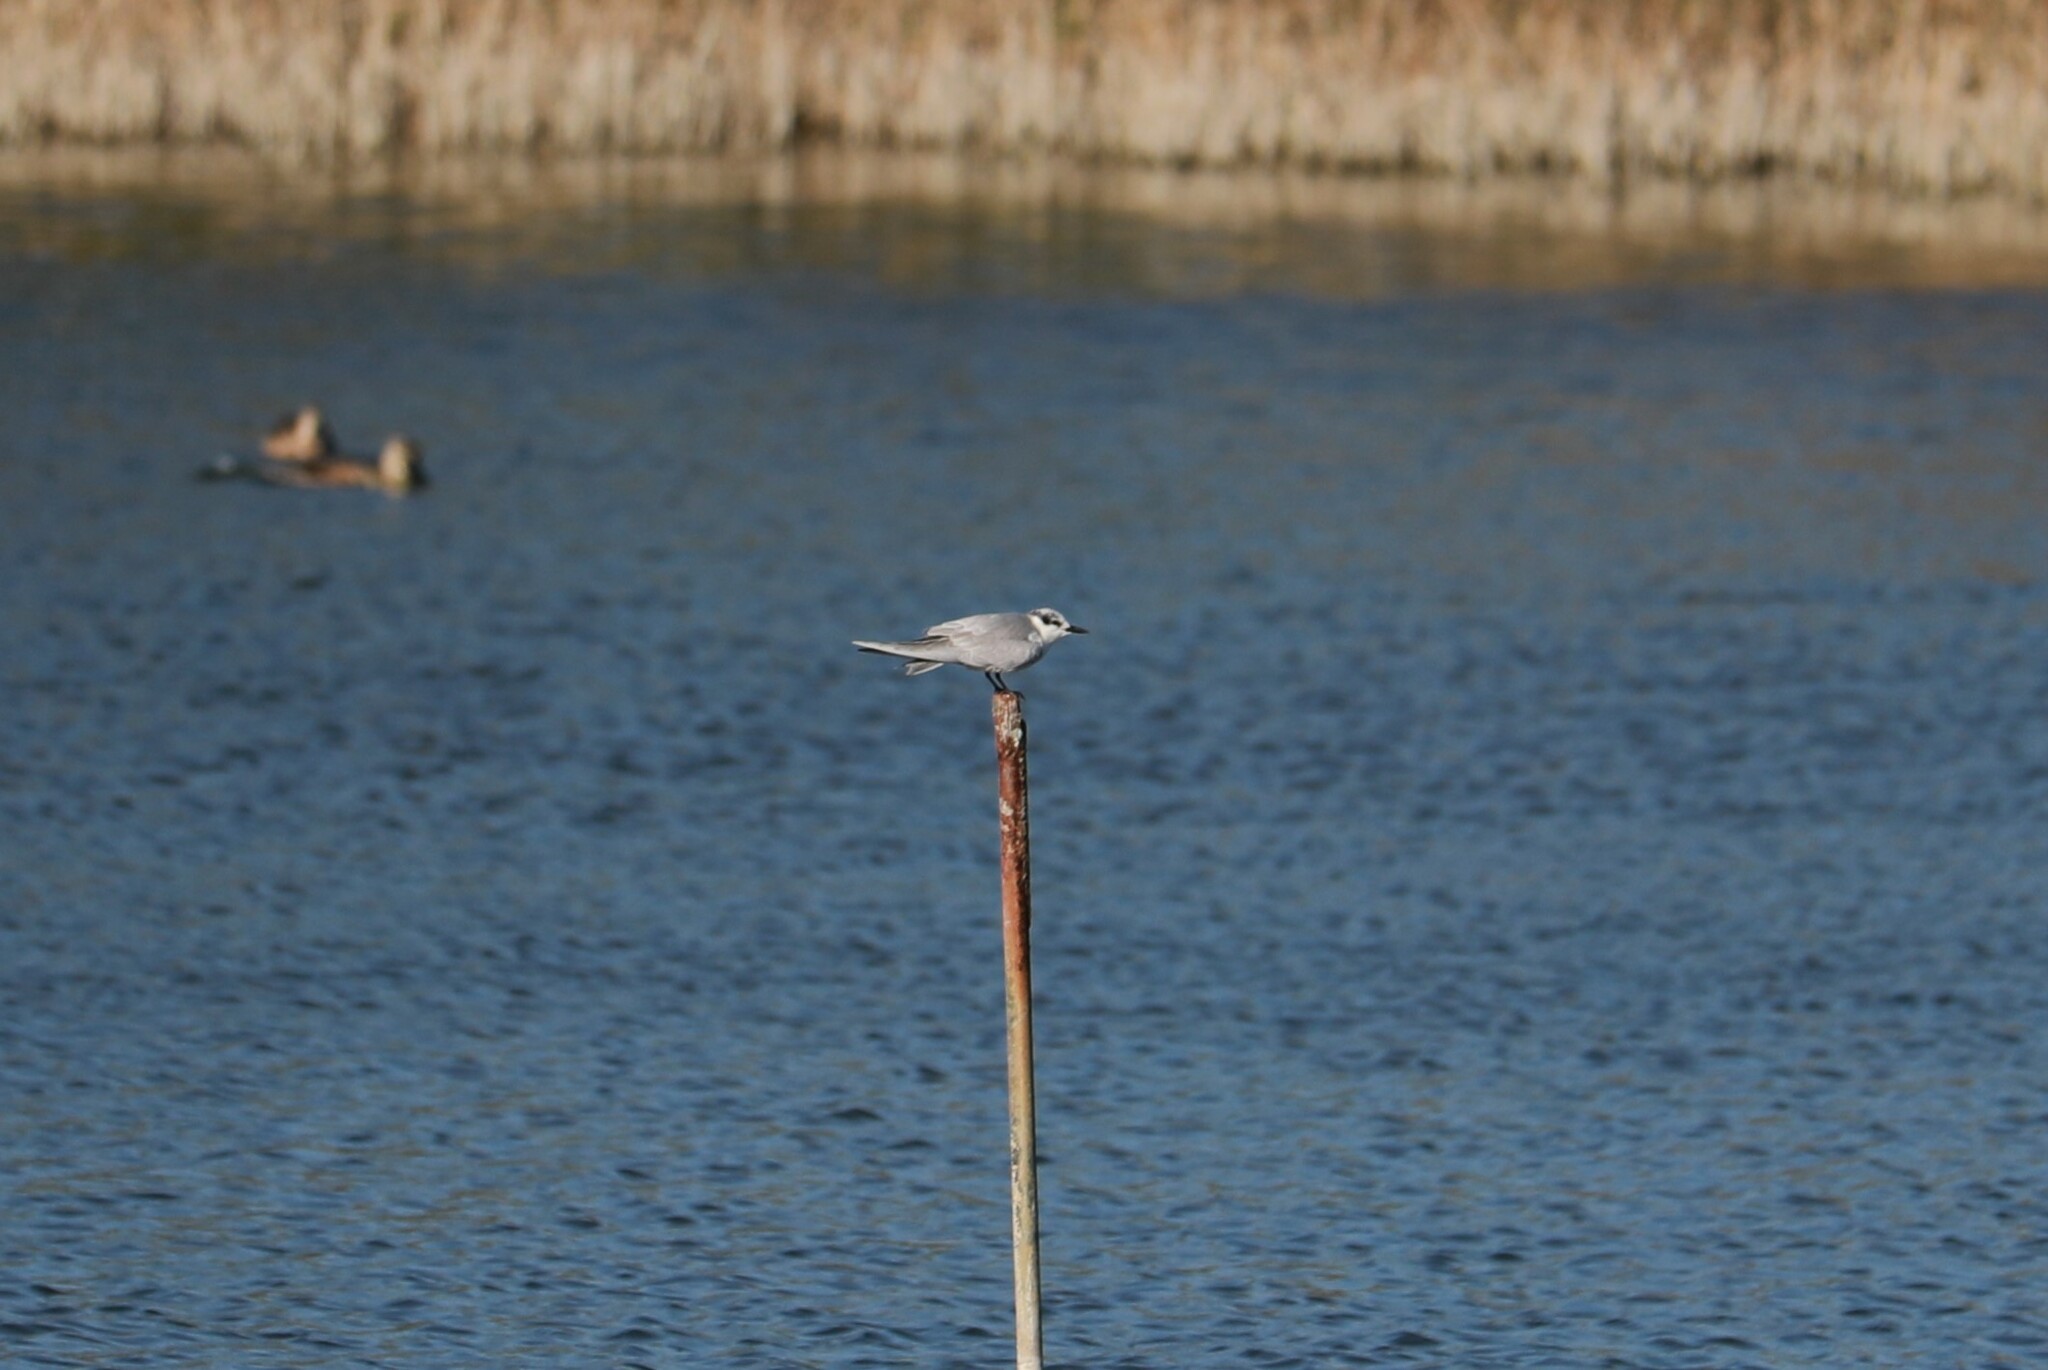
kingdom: Animalia
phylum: Chordata
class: Aves
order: Charadriiformes
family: Laridae
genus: Chlidonias
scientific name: Chlidonias hybrida
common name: Whiskered tern
